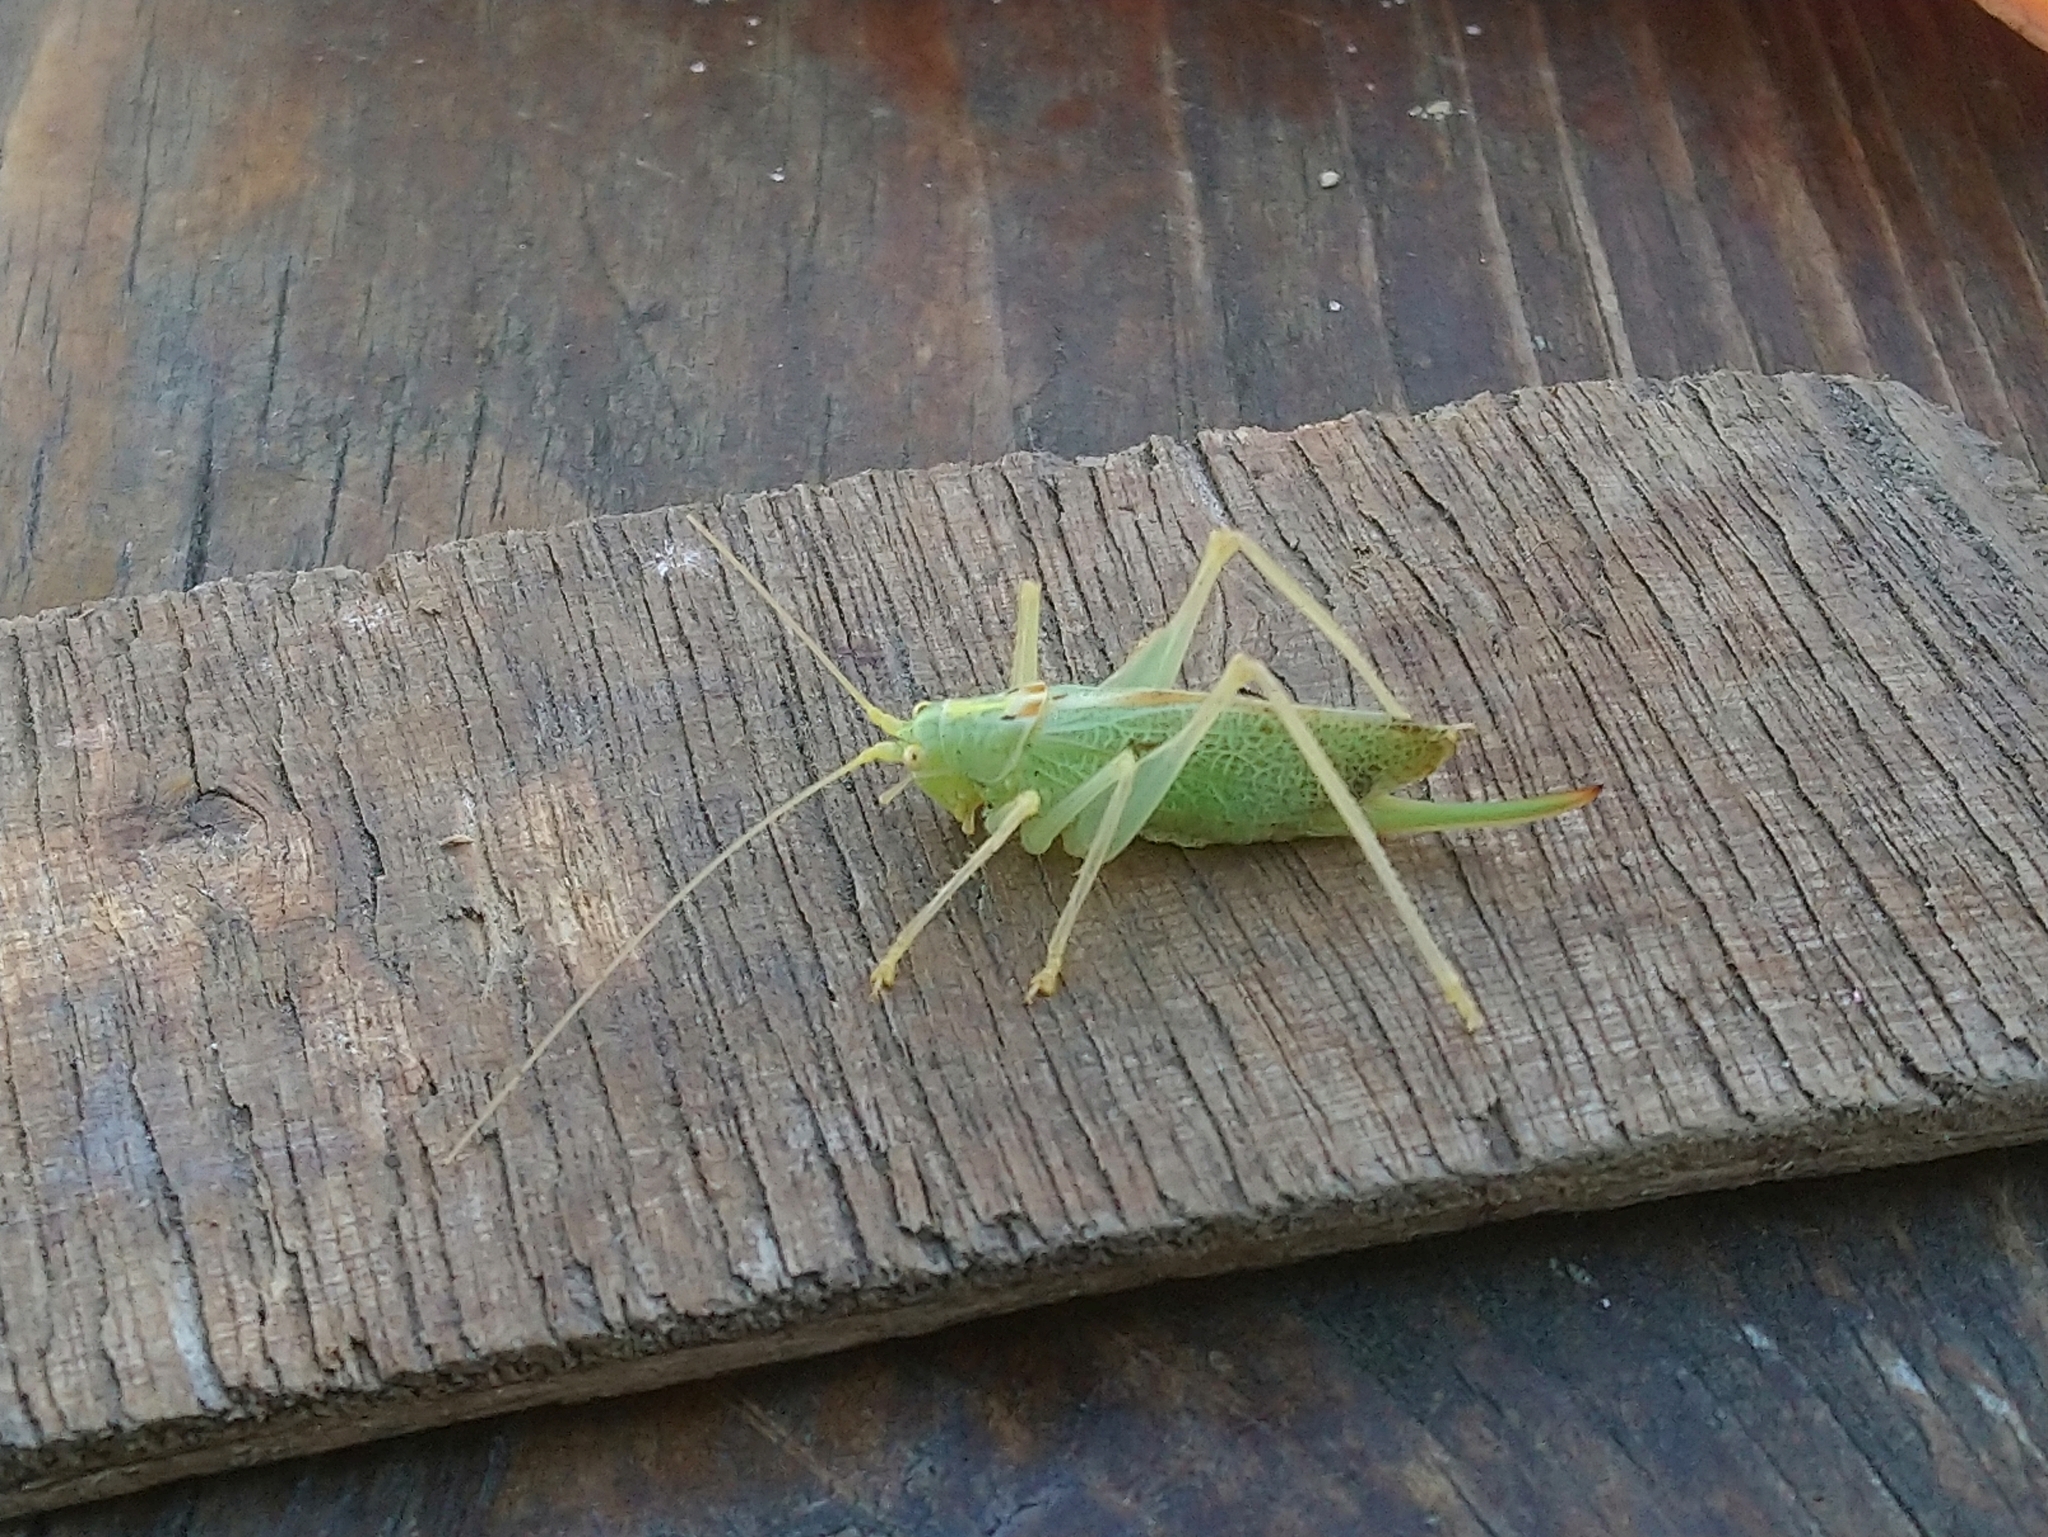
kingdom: Animalia
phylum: Arthropoda
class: Insecta
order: Orthoptera
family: Tettigoniidae
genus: Meconema
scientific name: Meconema thalassinum
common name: Oak bush-cricket
